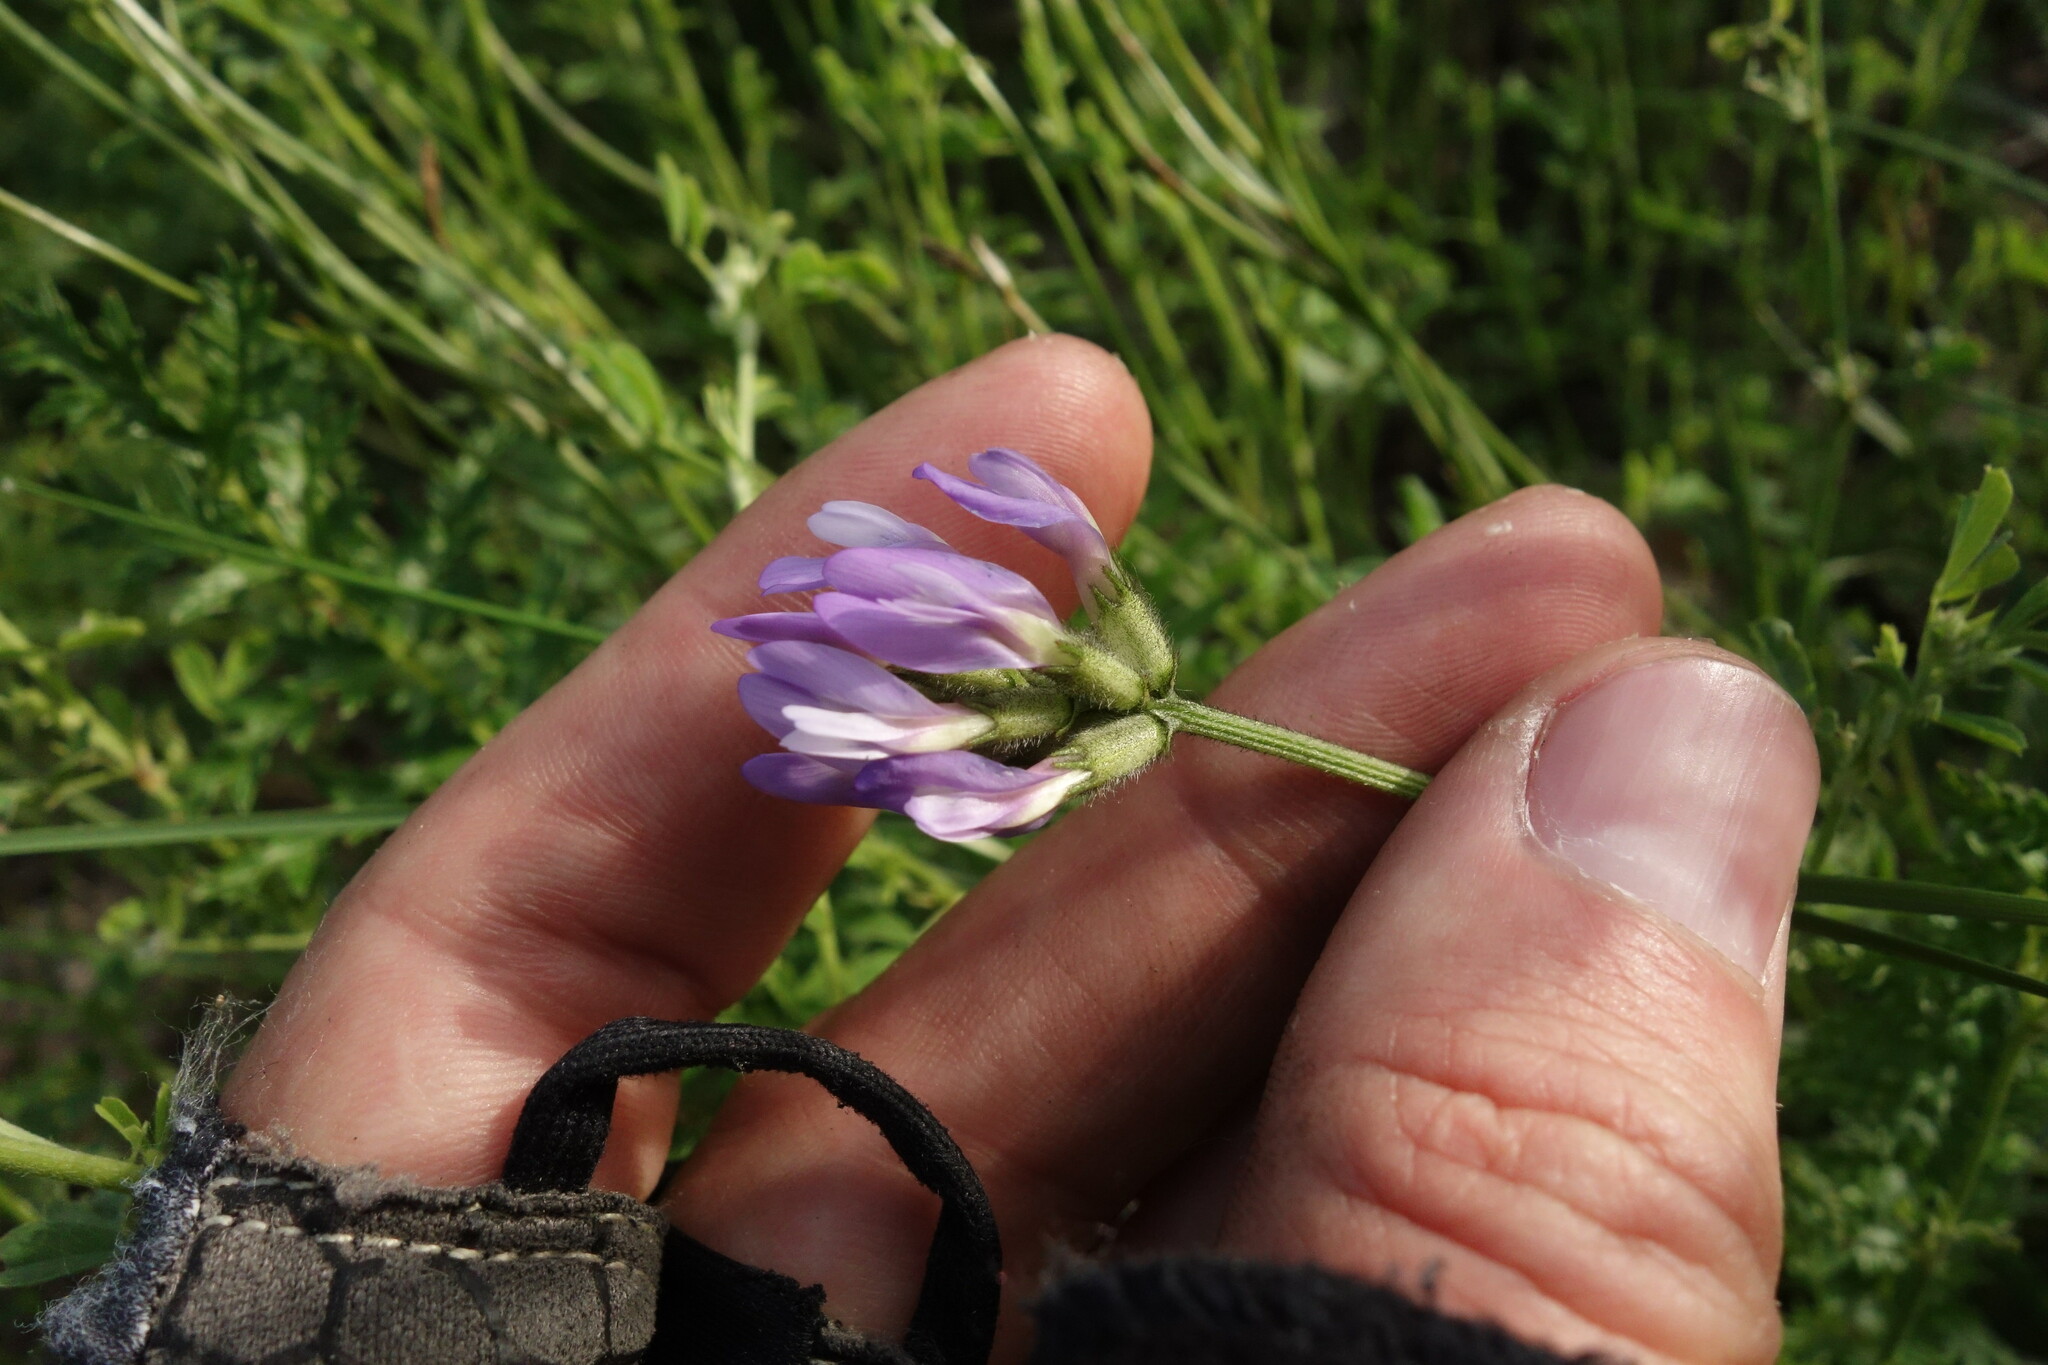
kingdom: Plantae
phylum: Tracheophyta
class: Magnoliopsida
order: Fabales
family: Fabaceae
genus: Astragalus
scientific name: Astragalus danicus
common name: Purple milk-vetch
